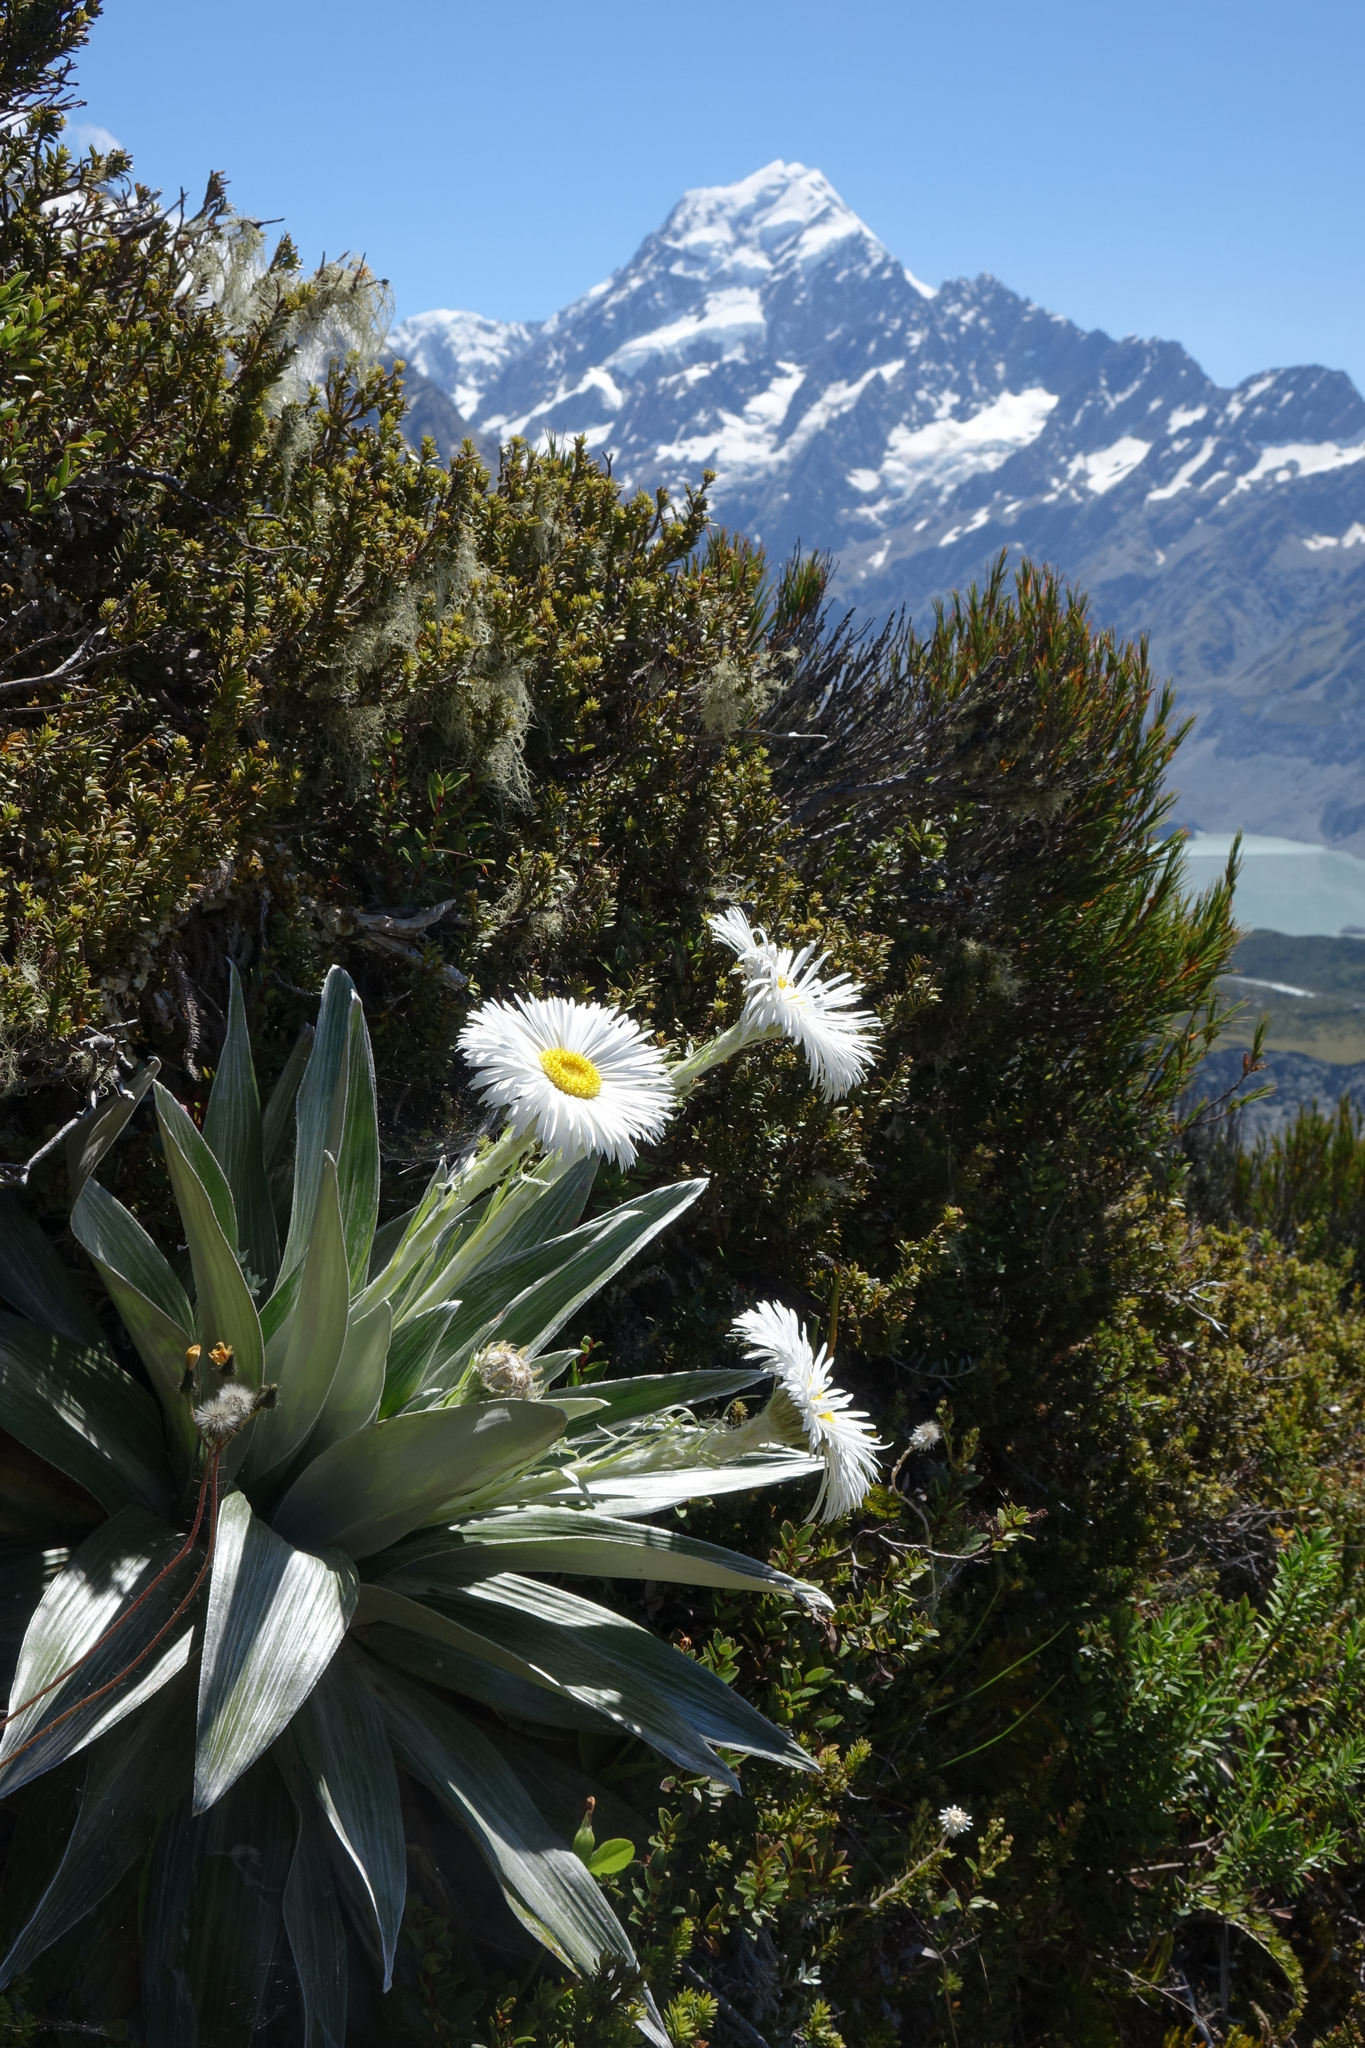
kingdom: Plantae
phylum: Tracheophyta
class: Magnoliopsida
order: Asterales
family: Asteraceae
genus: Celmisia
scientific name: Celmisia semicordata
